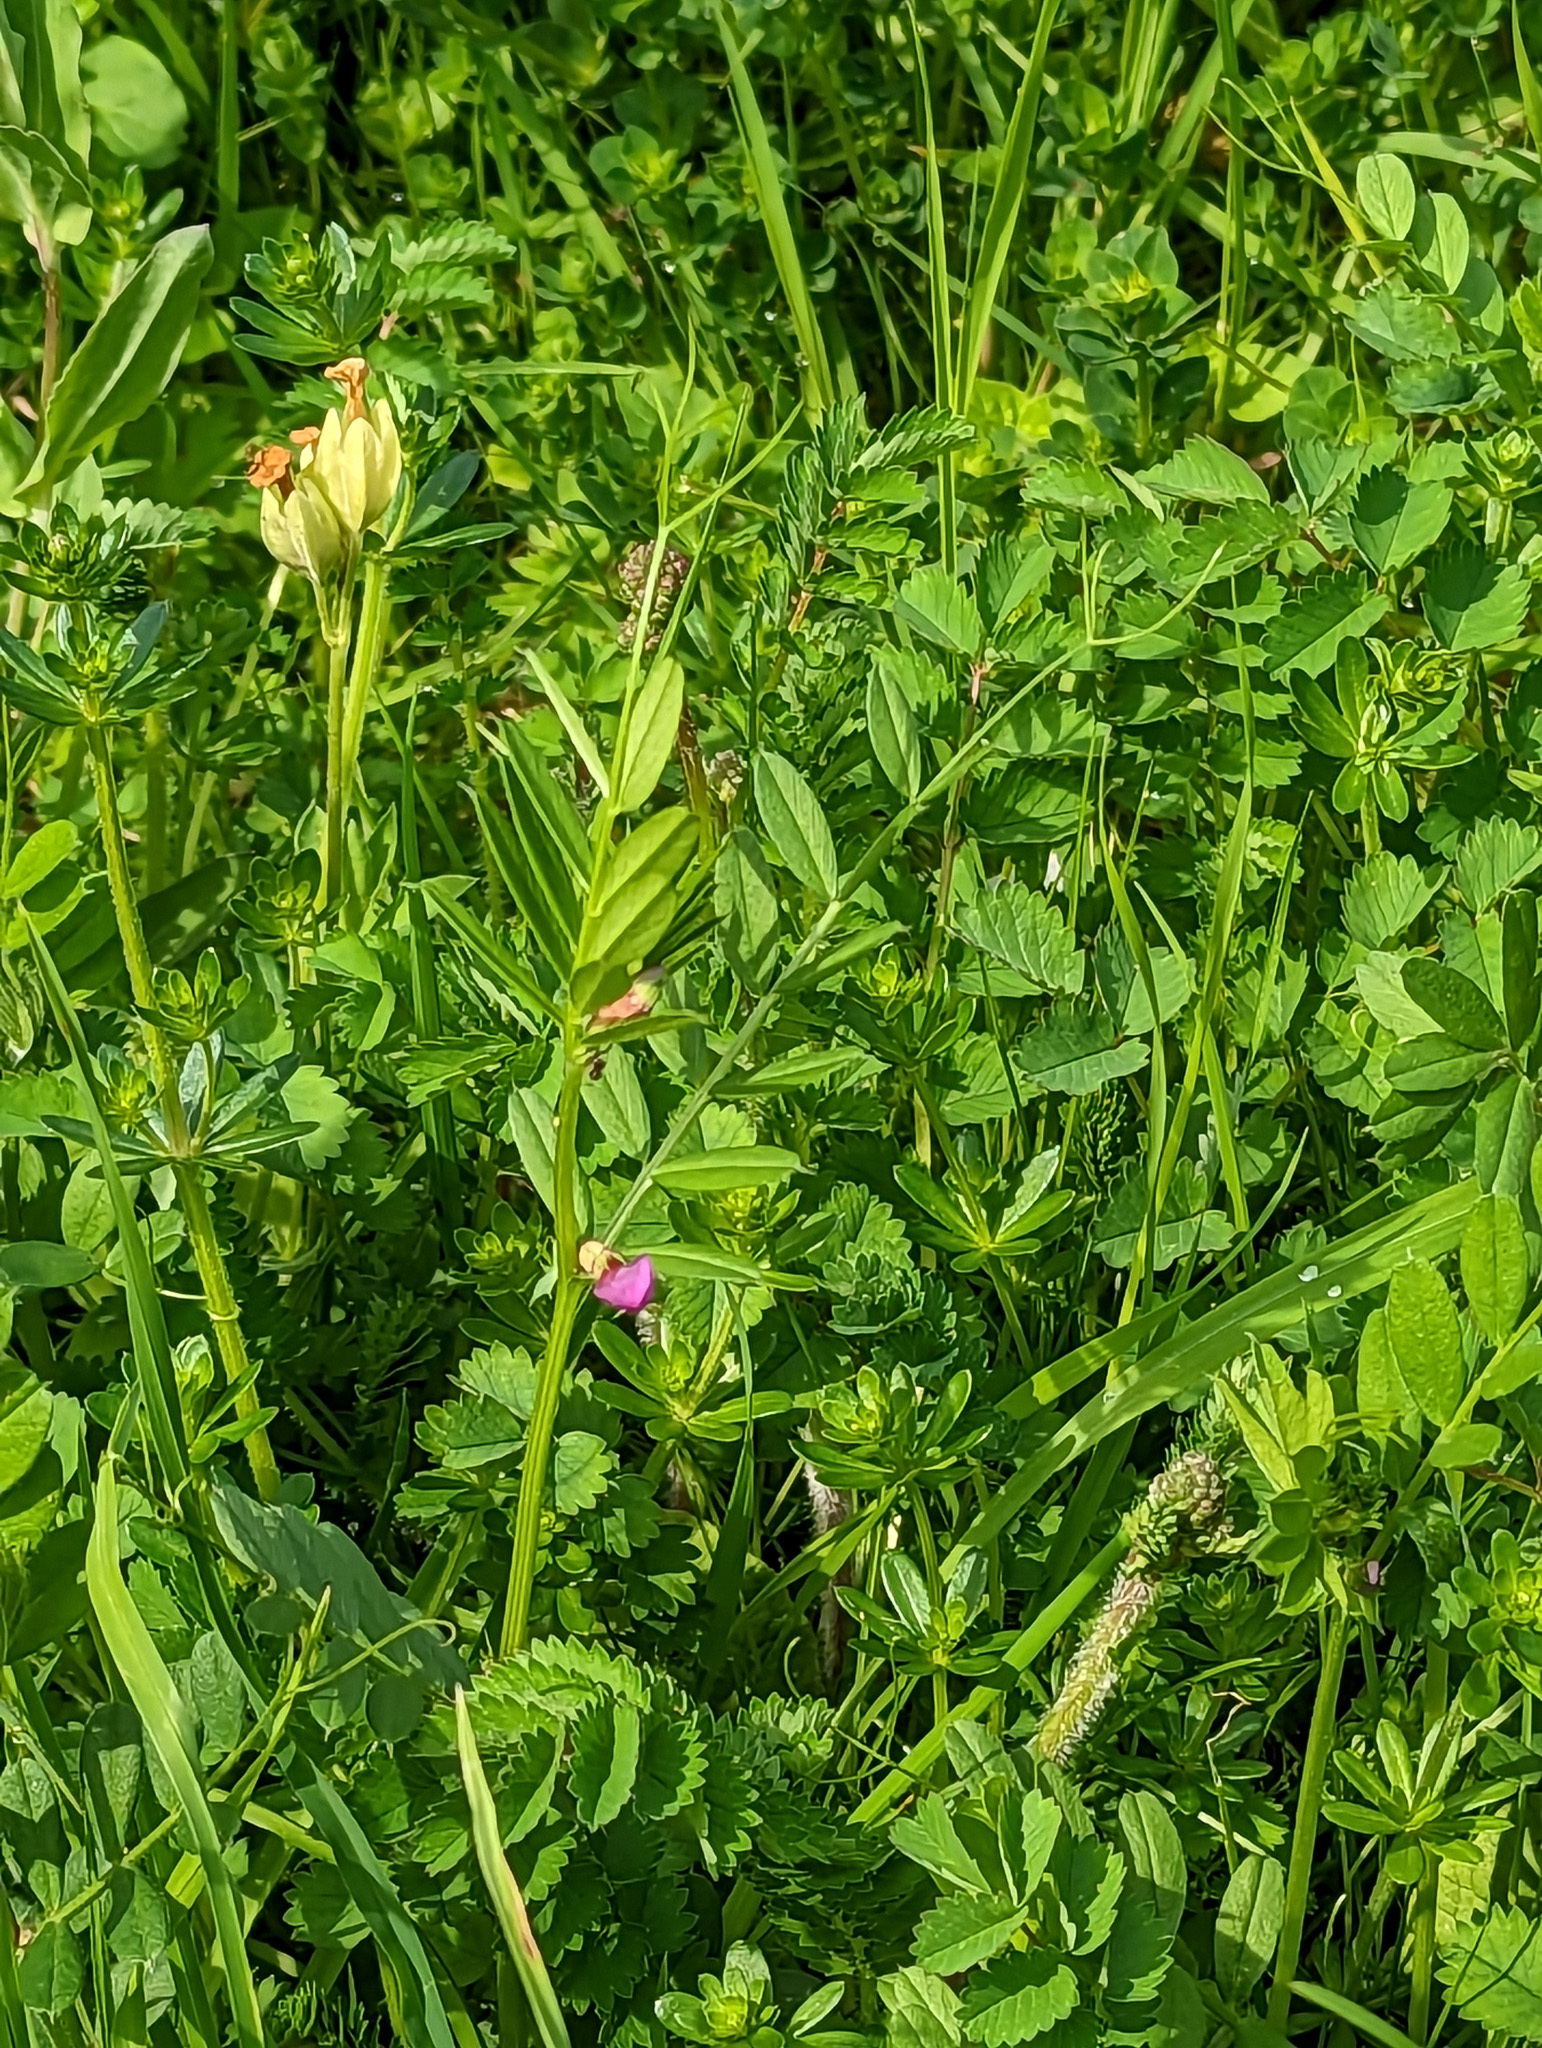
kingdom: Plantae
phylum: Tracheophyta
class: Magnoliopsida
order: Fabales
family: Fabaceae
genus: Vicia
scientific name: Vicia sativa
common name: Garden vetch
